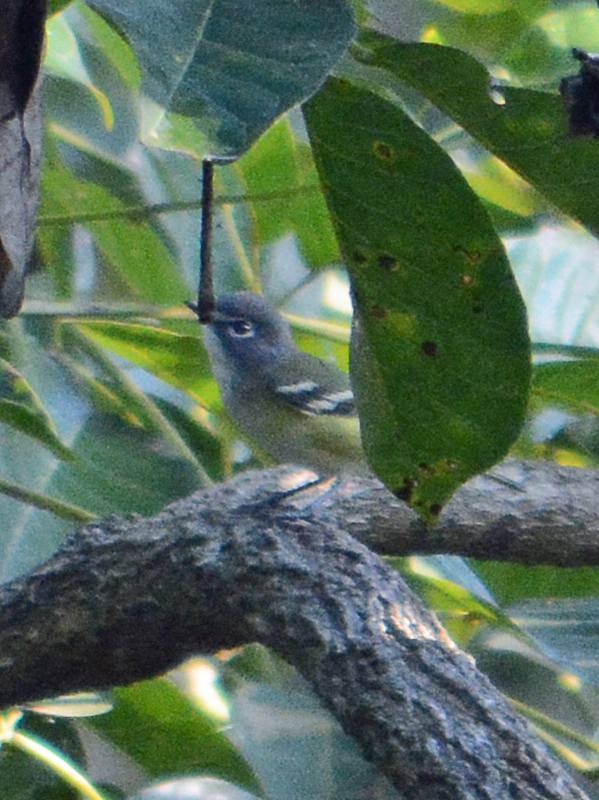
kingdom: Animalia
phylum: Chordata
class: Aves
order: Passeriformes
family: Vireonidae
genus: Vireo
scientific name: Vireo solitarius
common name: Blue-headed vireo
